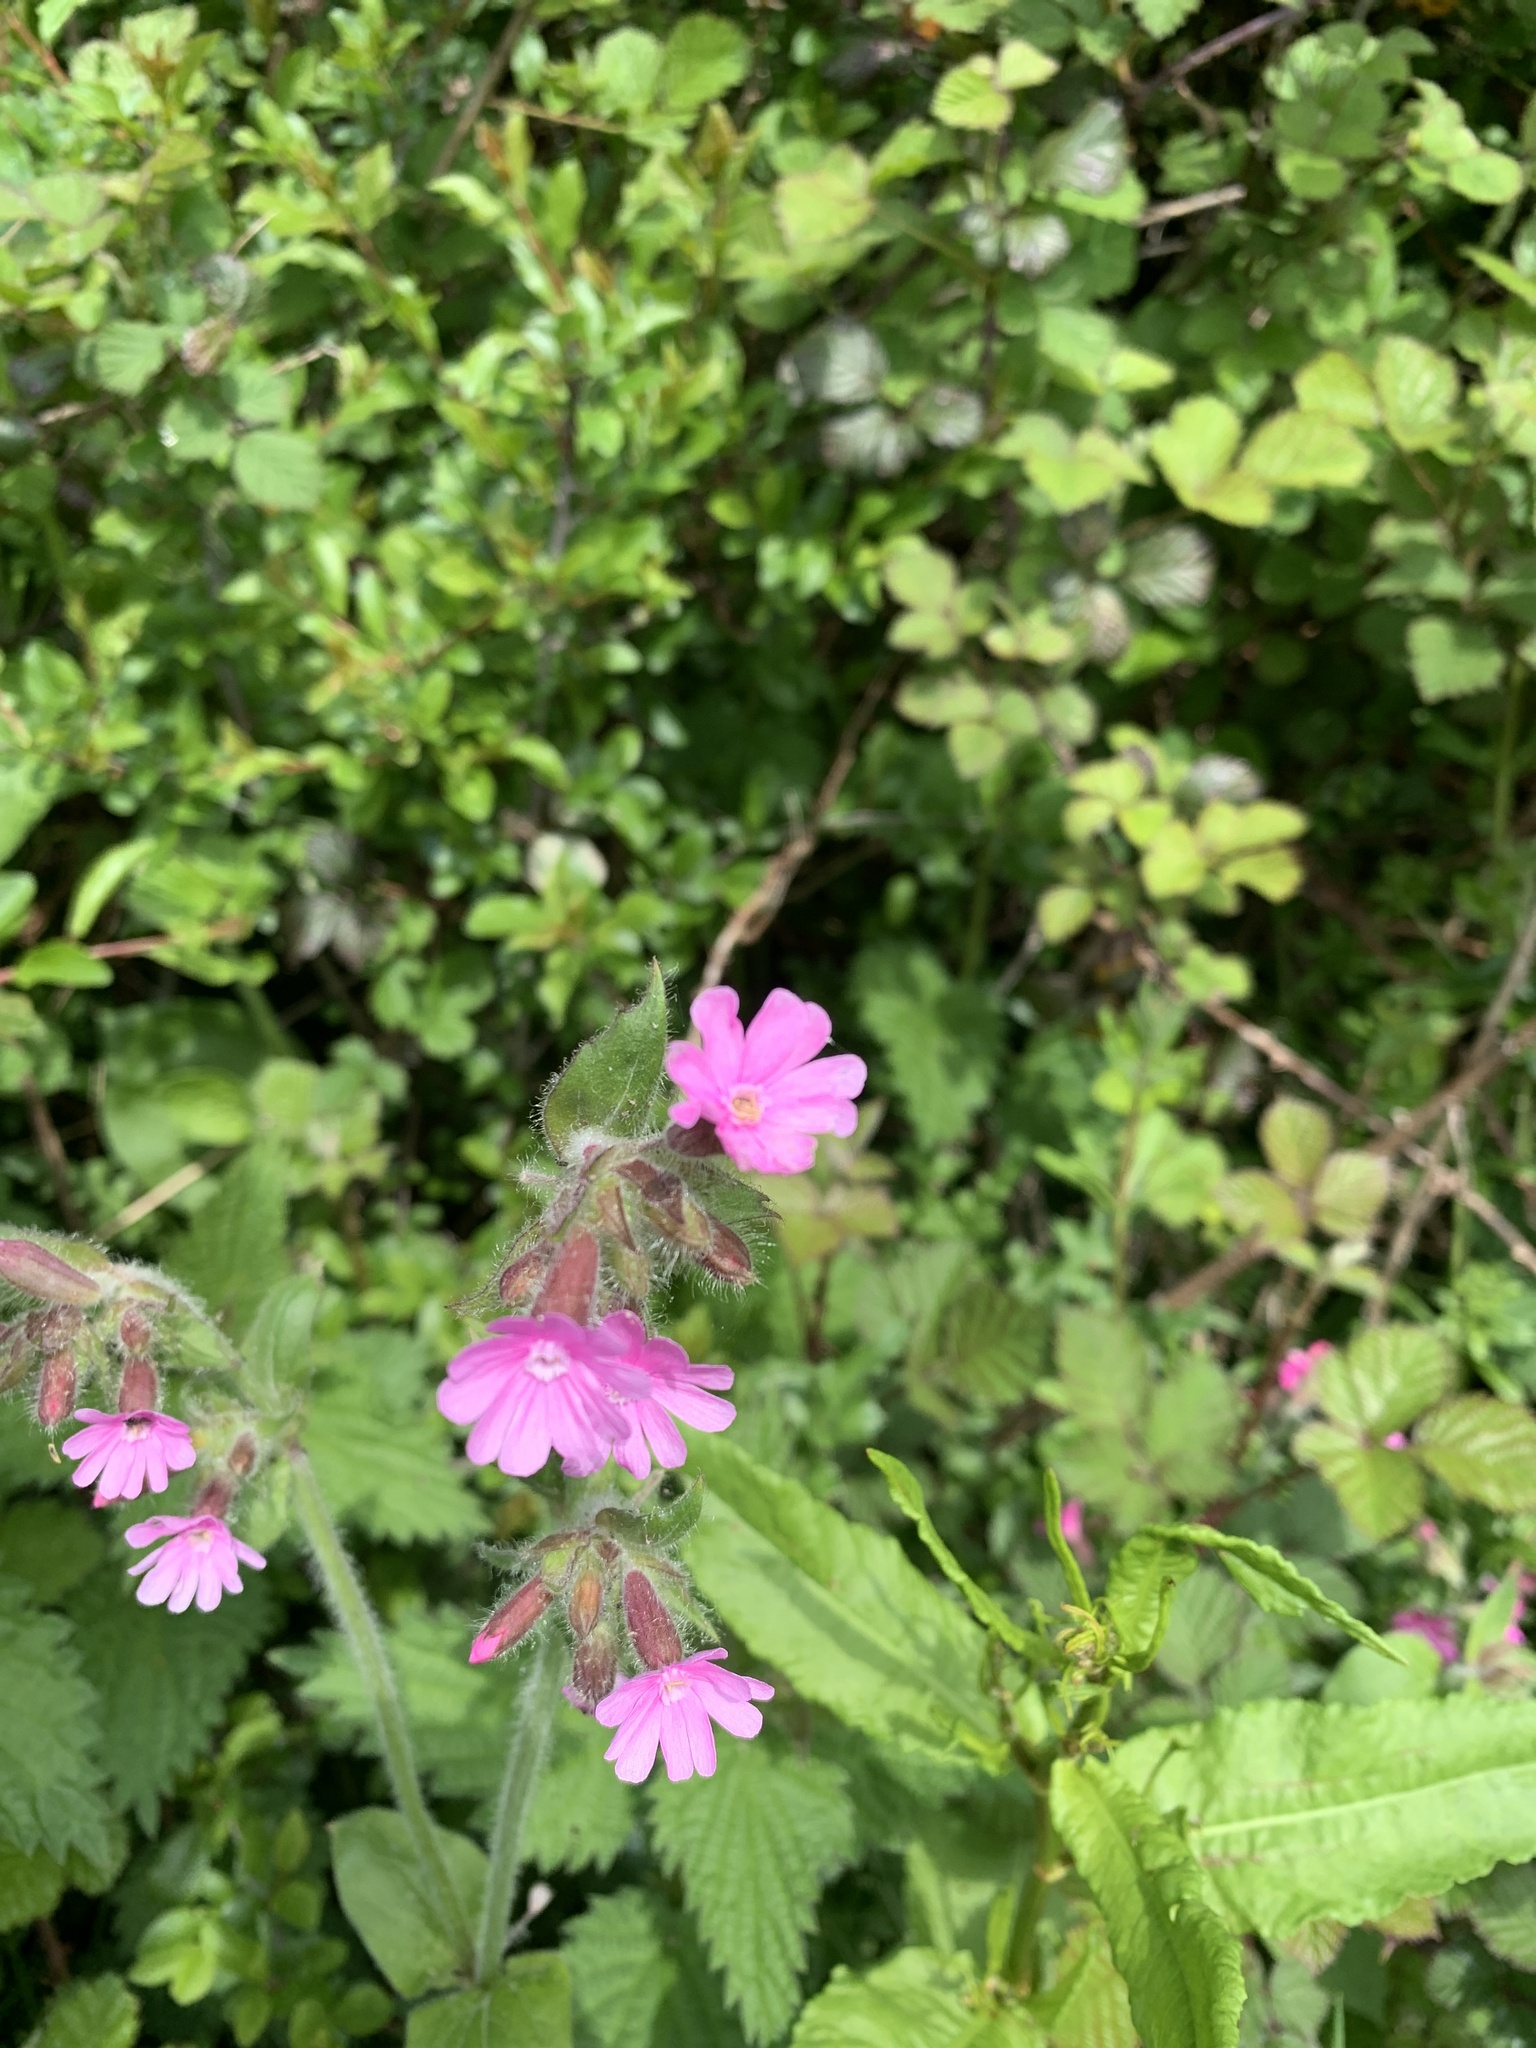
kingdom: Plantae
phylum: Tracheophyta
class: Magnoliopsida
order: Caryophyllales
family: Caryophyllaceae
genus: Silene
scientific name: Silene dioica
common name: Red campion
